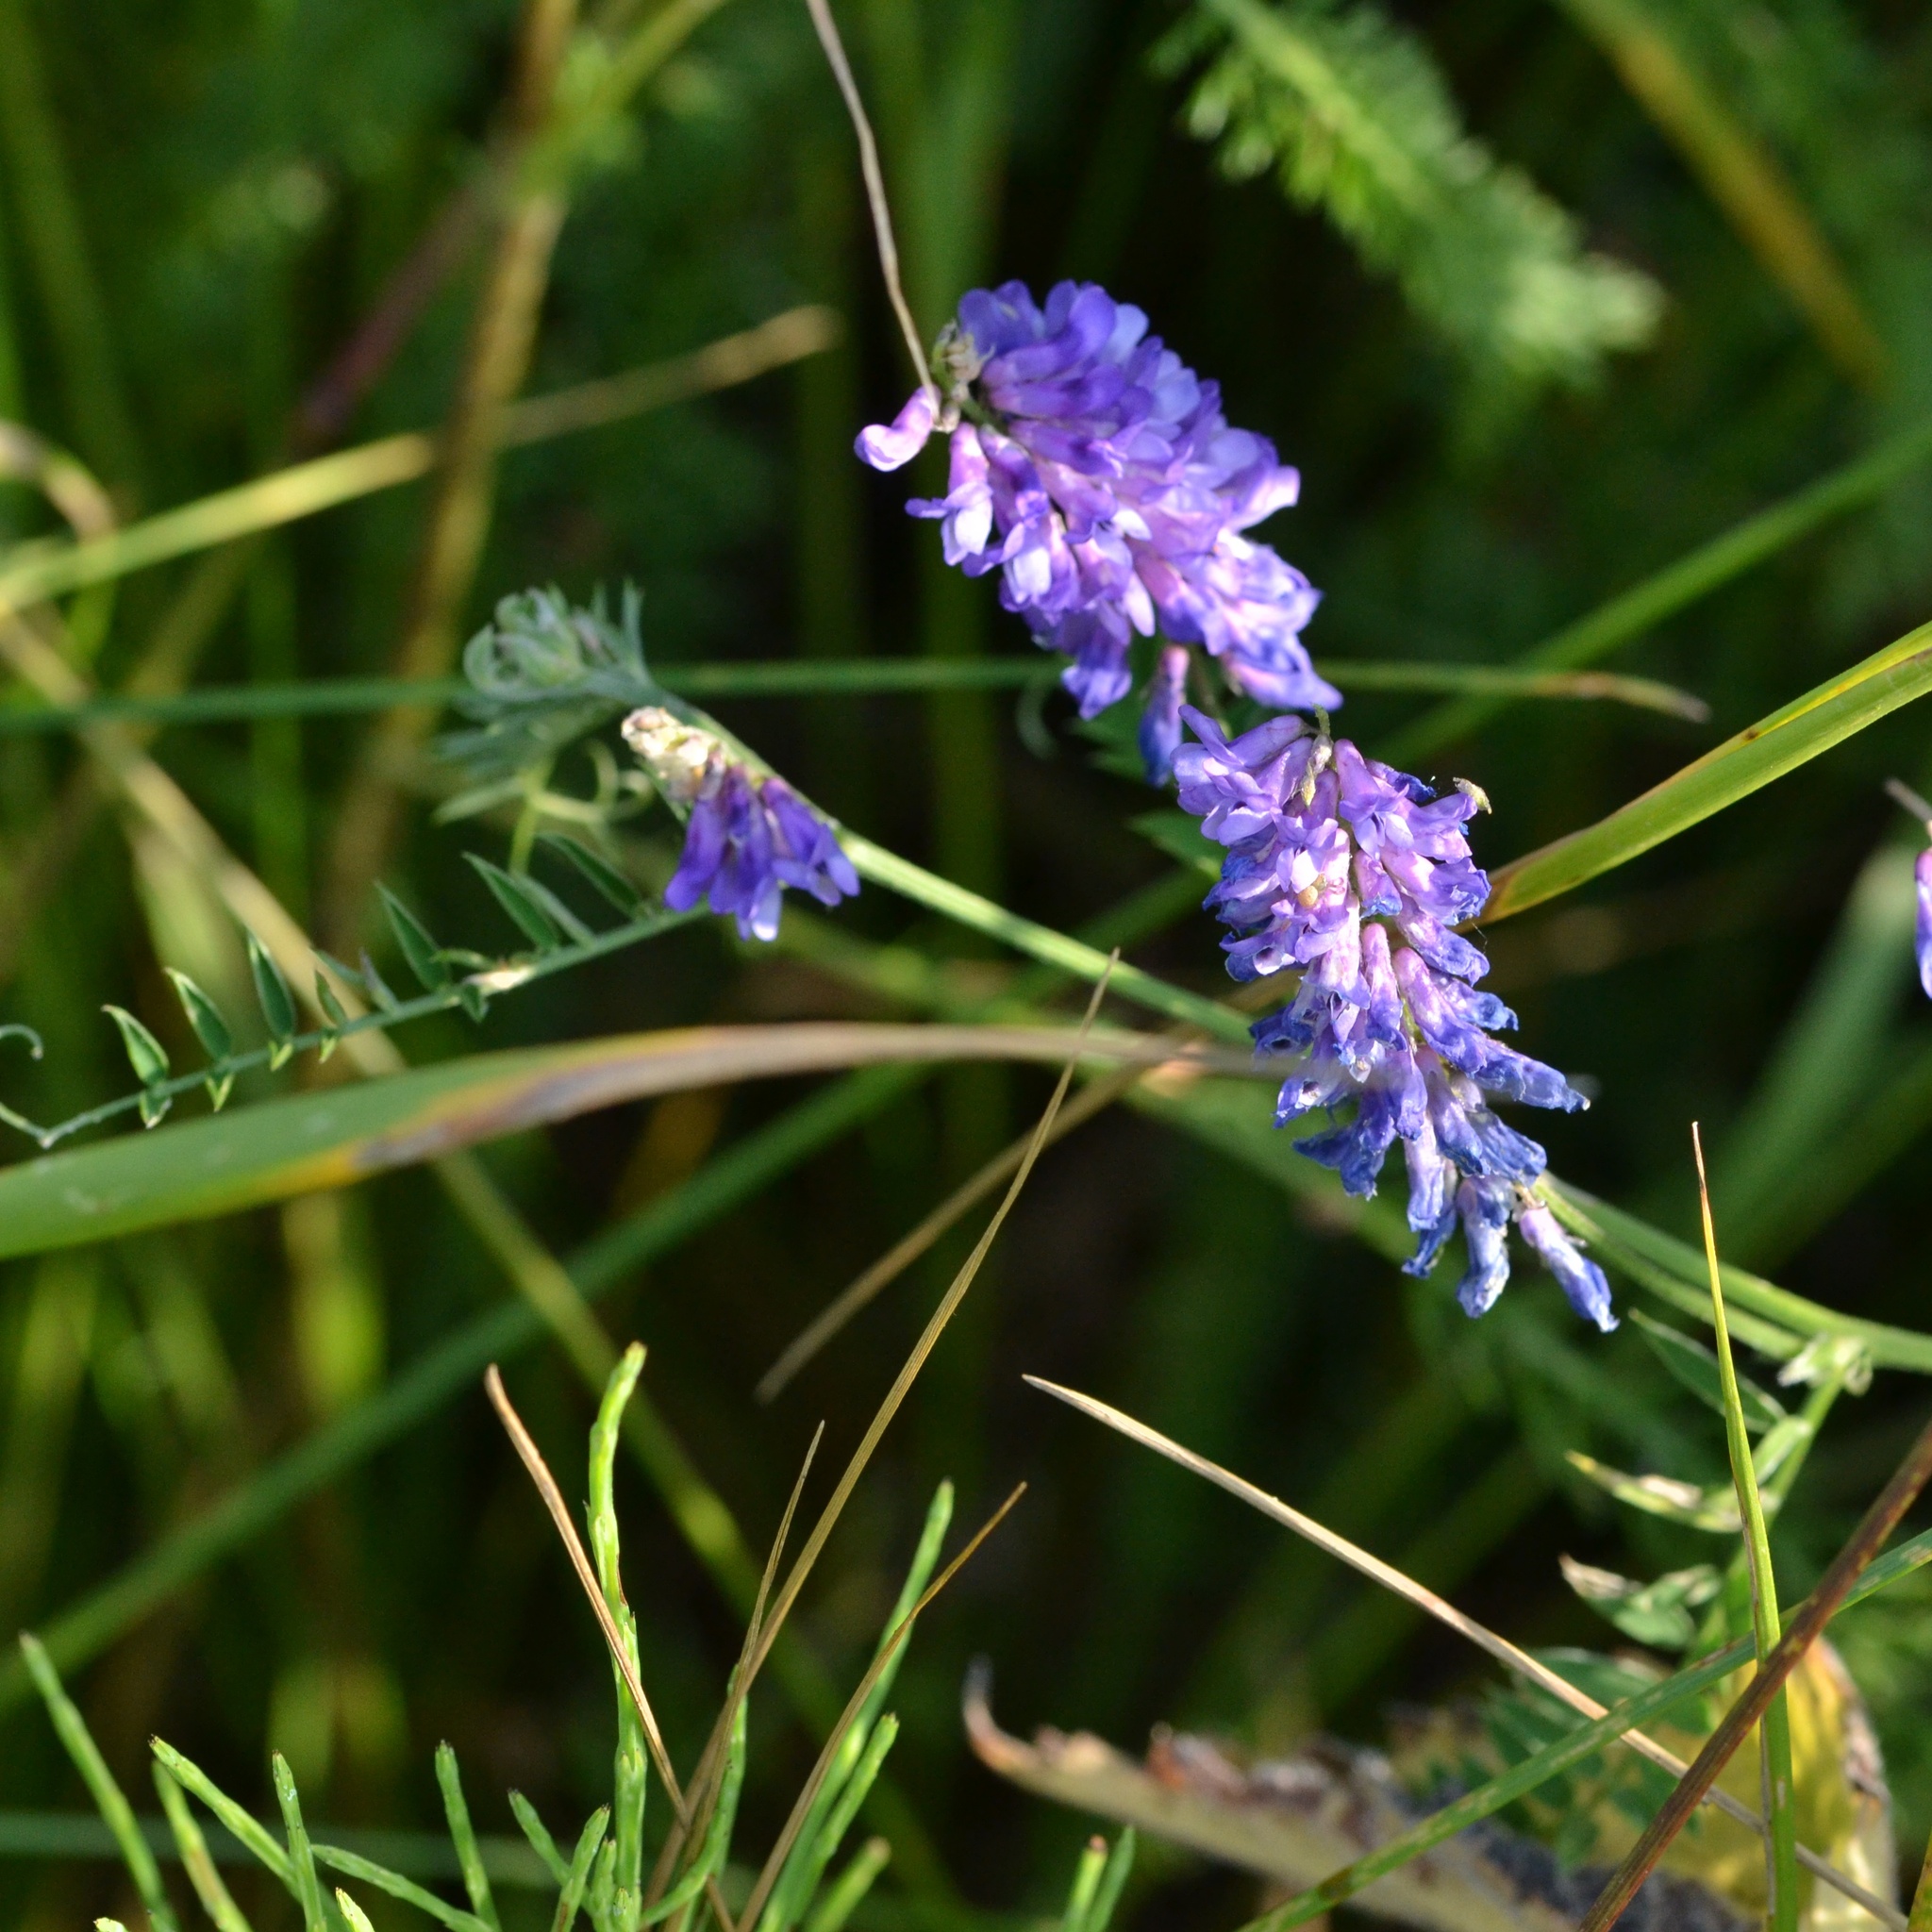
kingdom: Plantae
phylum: Tracheophyta
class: Magnoliopsida
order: Fabales
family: Fabaceae
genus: Vicia
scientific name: Vicia cracca
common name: Bird vetch
